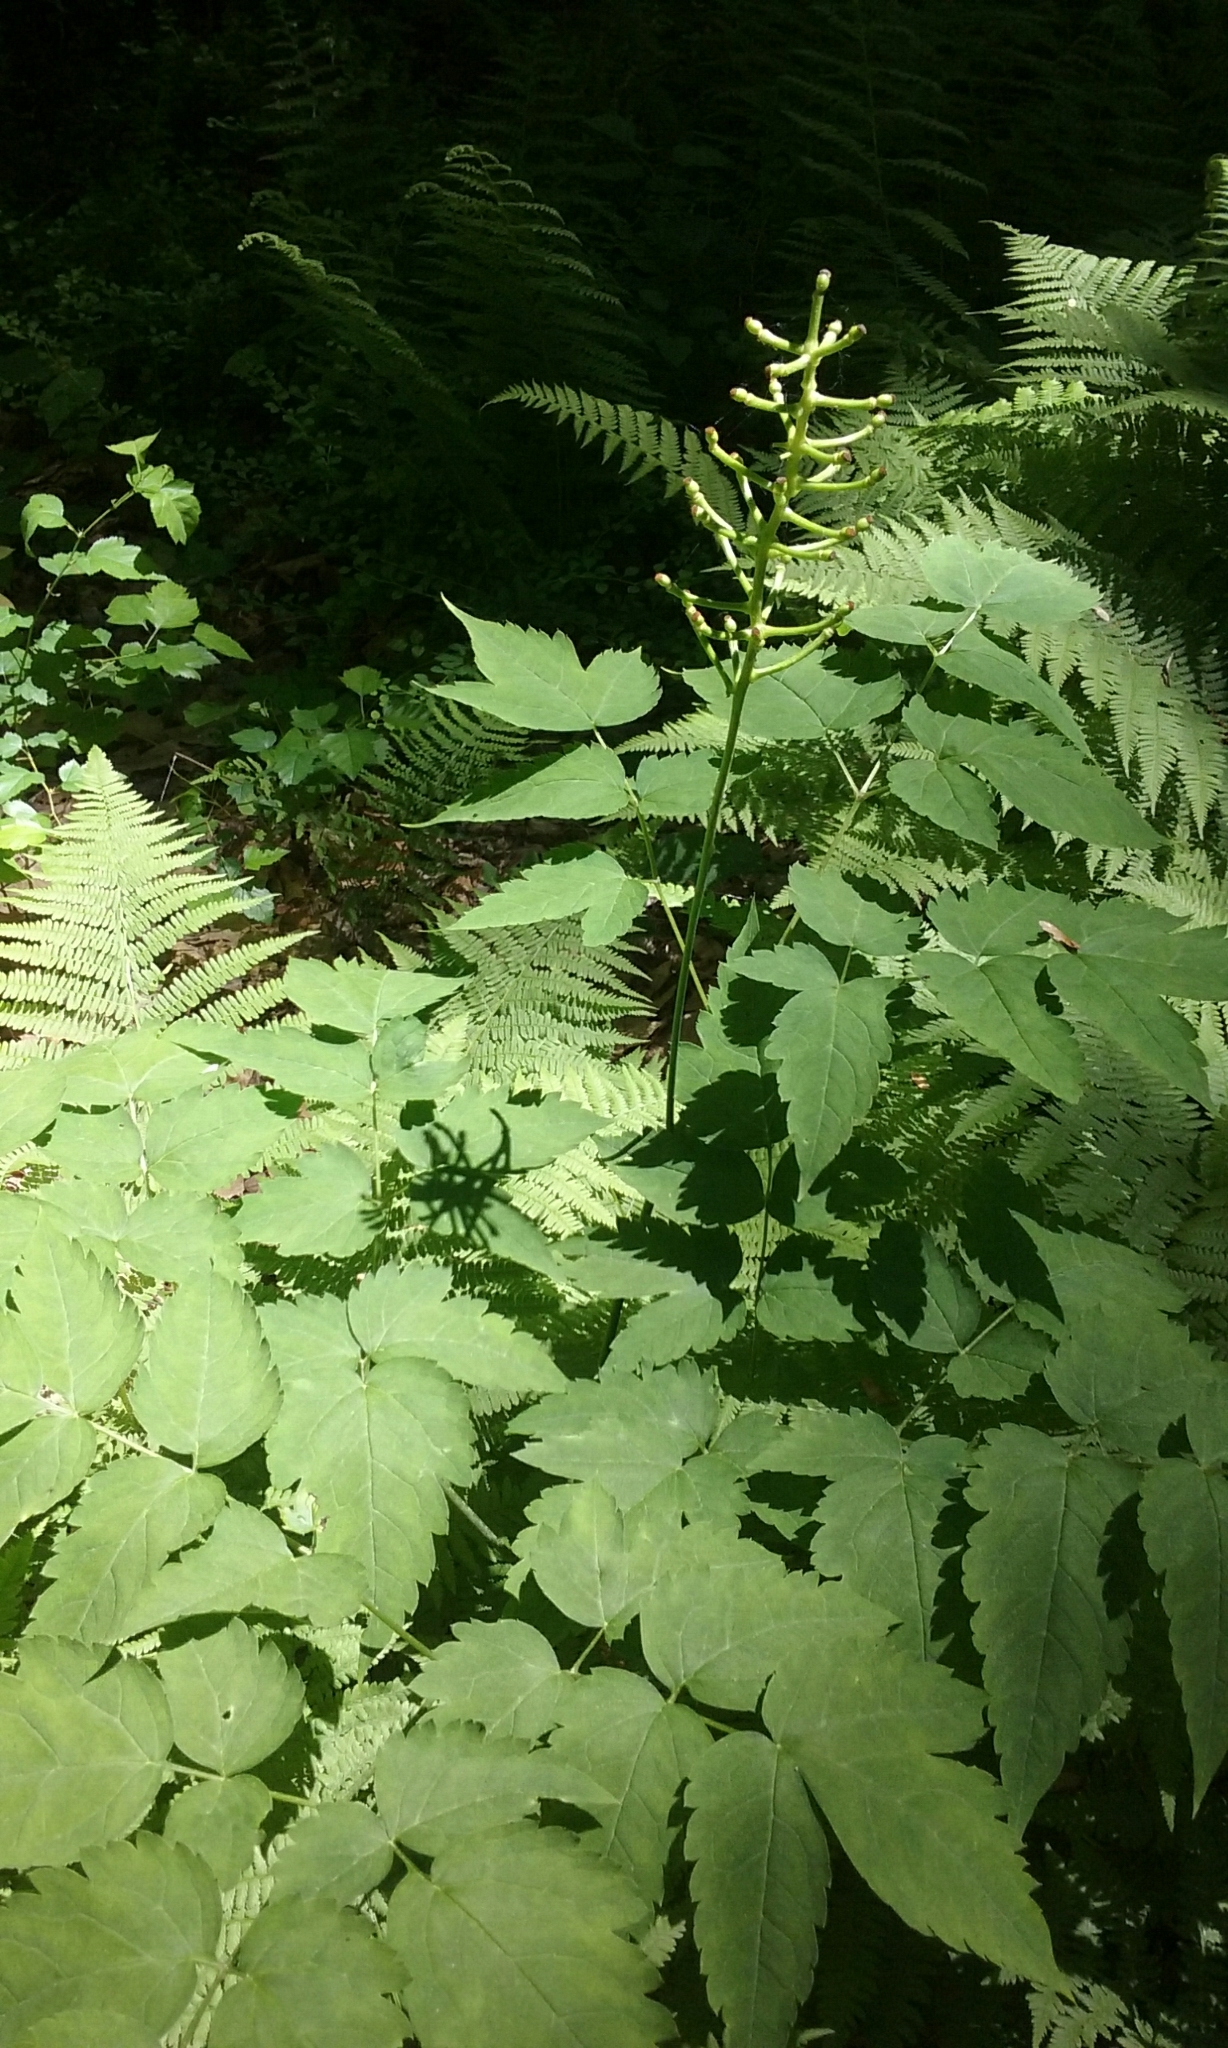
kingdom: Plantae
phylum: Tracheophyta
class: Magnoliopsida
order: Ranunculales
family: Ranunculaceae
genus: Actaea
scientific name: Actaea pachypoda
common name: Doll's-eyes
